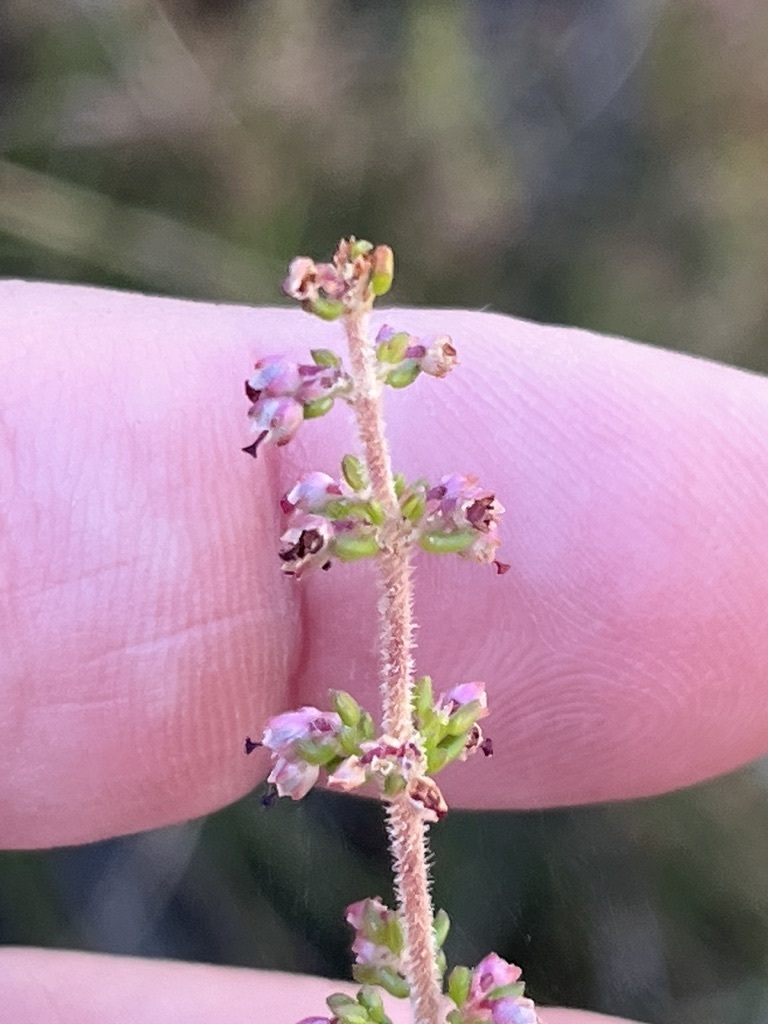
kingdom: Plantae
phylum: Tracheophyta
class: Magnoliopsida
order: Ericales
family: Ericaceae
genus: Erica
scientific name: Erica hispidula
